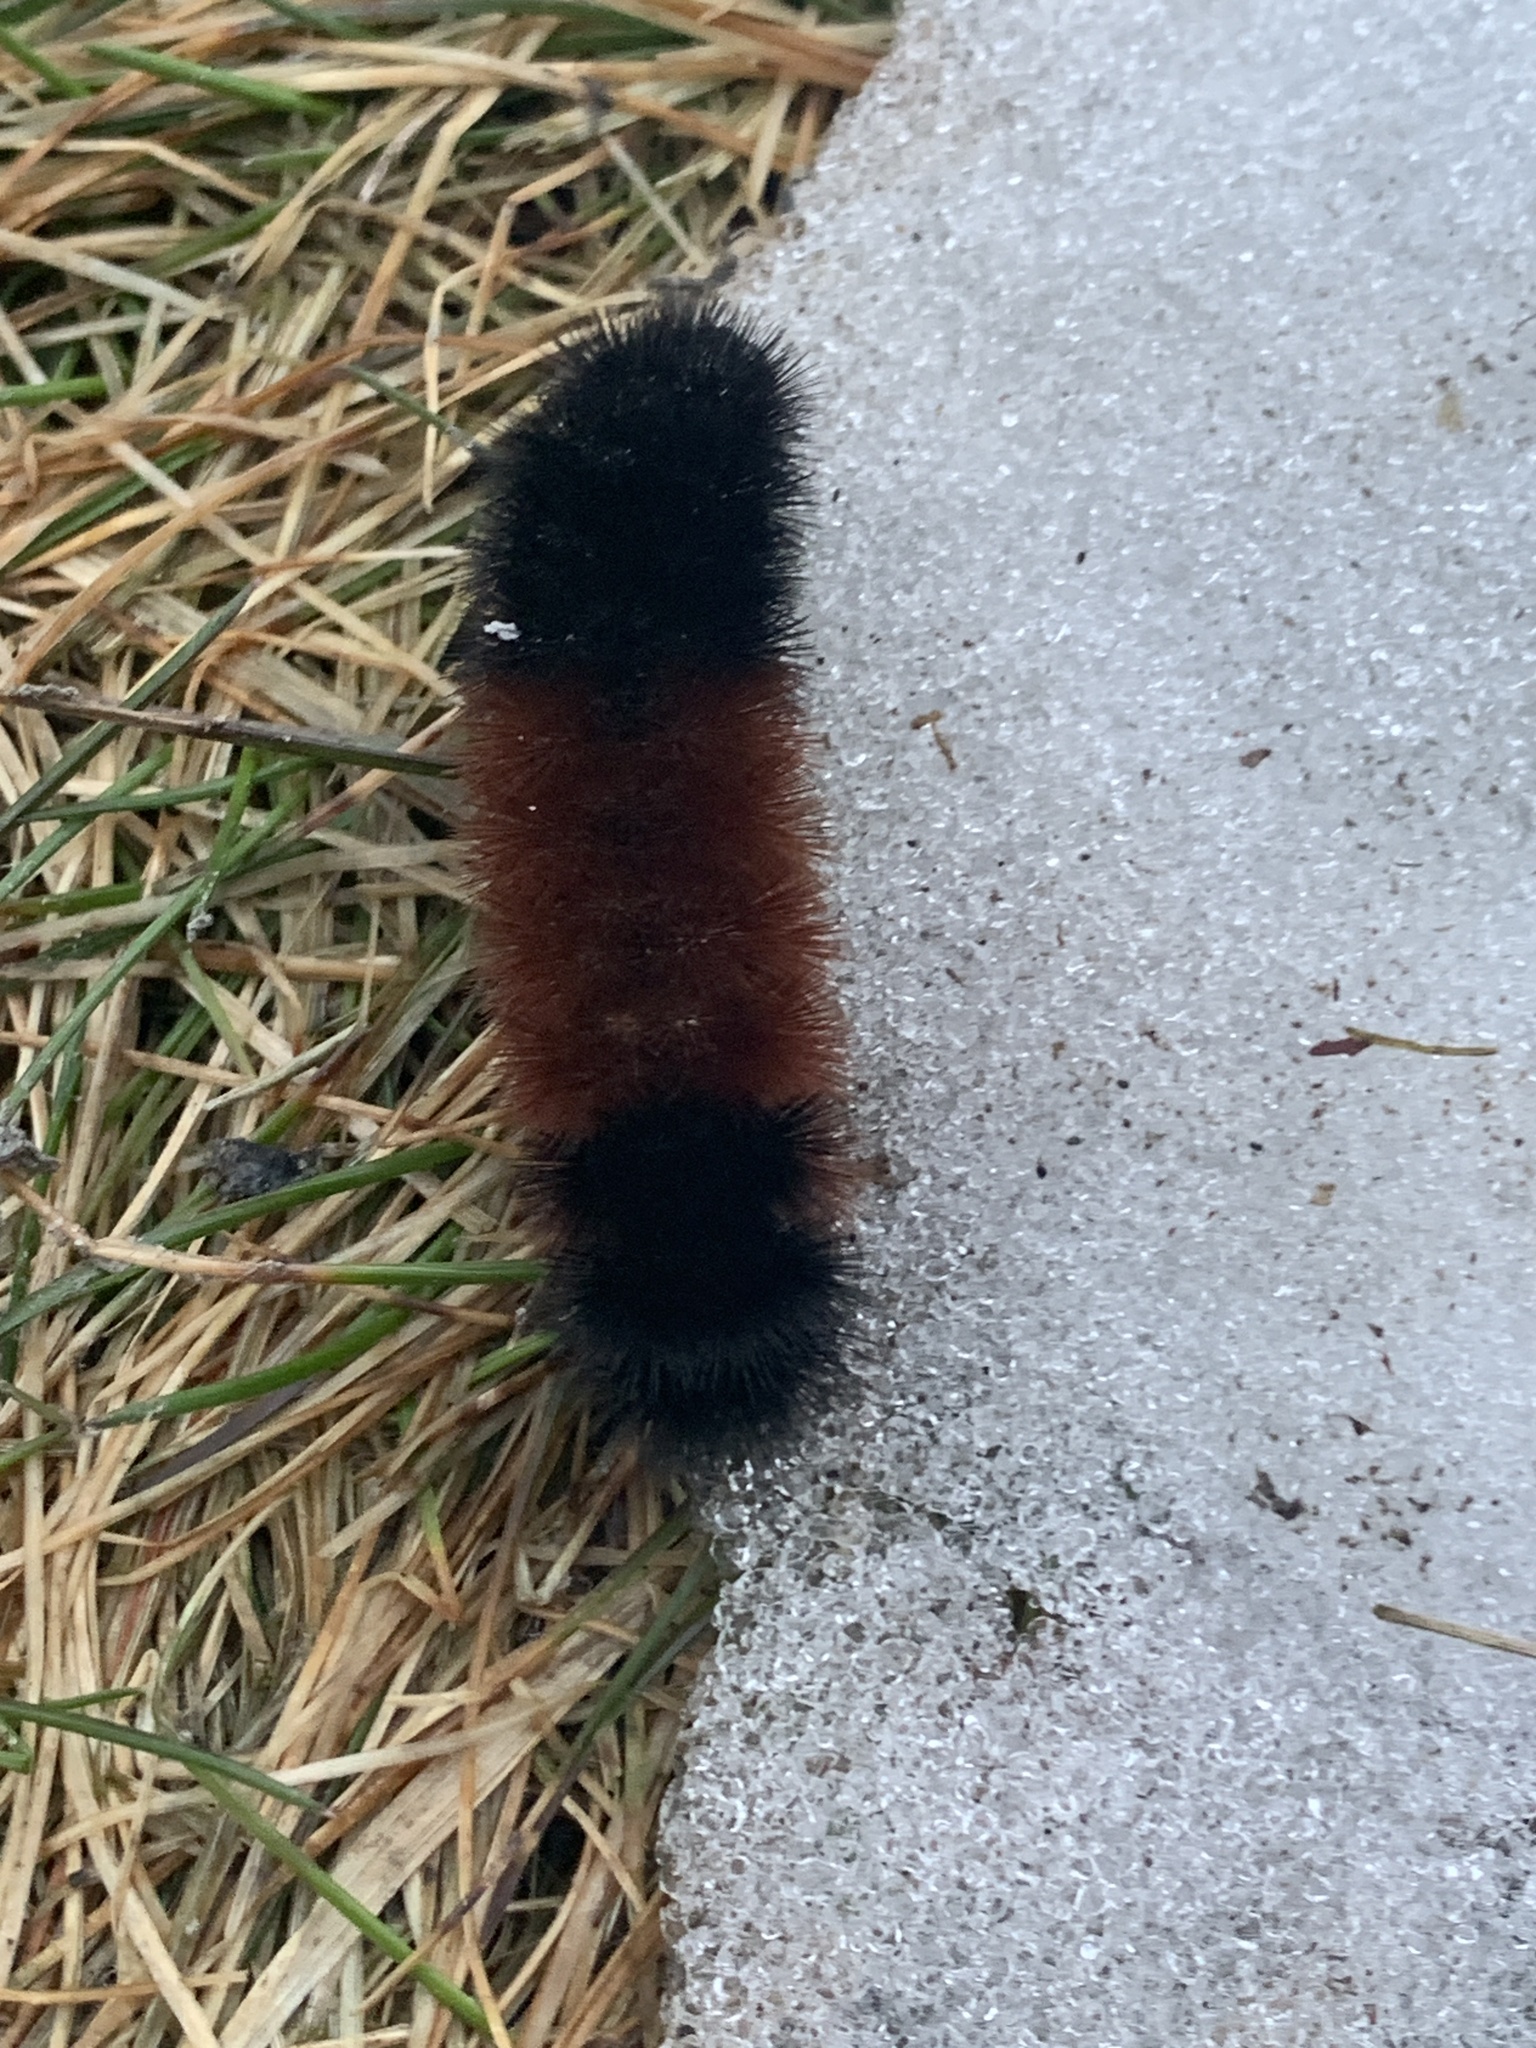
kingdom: Animalia
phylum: Arthropoda
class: Insecta
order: Lepidoptera
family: Erebidae
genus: Pyrrharctia
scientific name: Pyrrharctia isabella
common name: Isabella tiger moth
